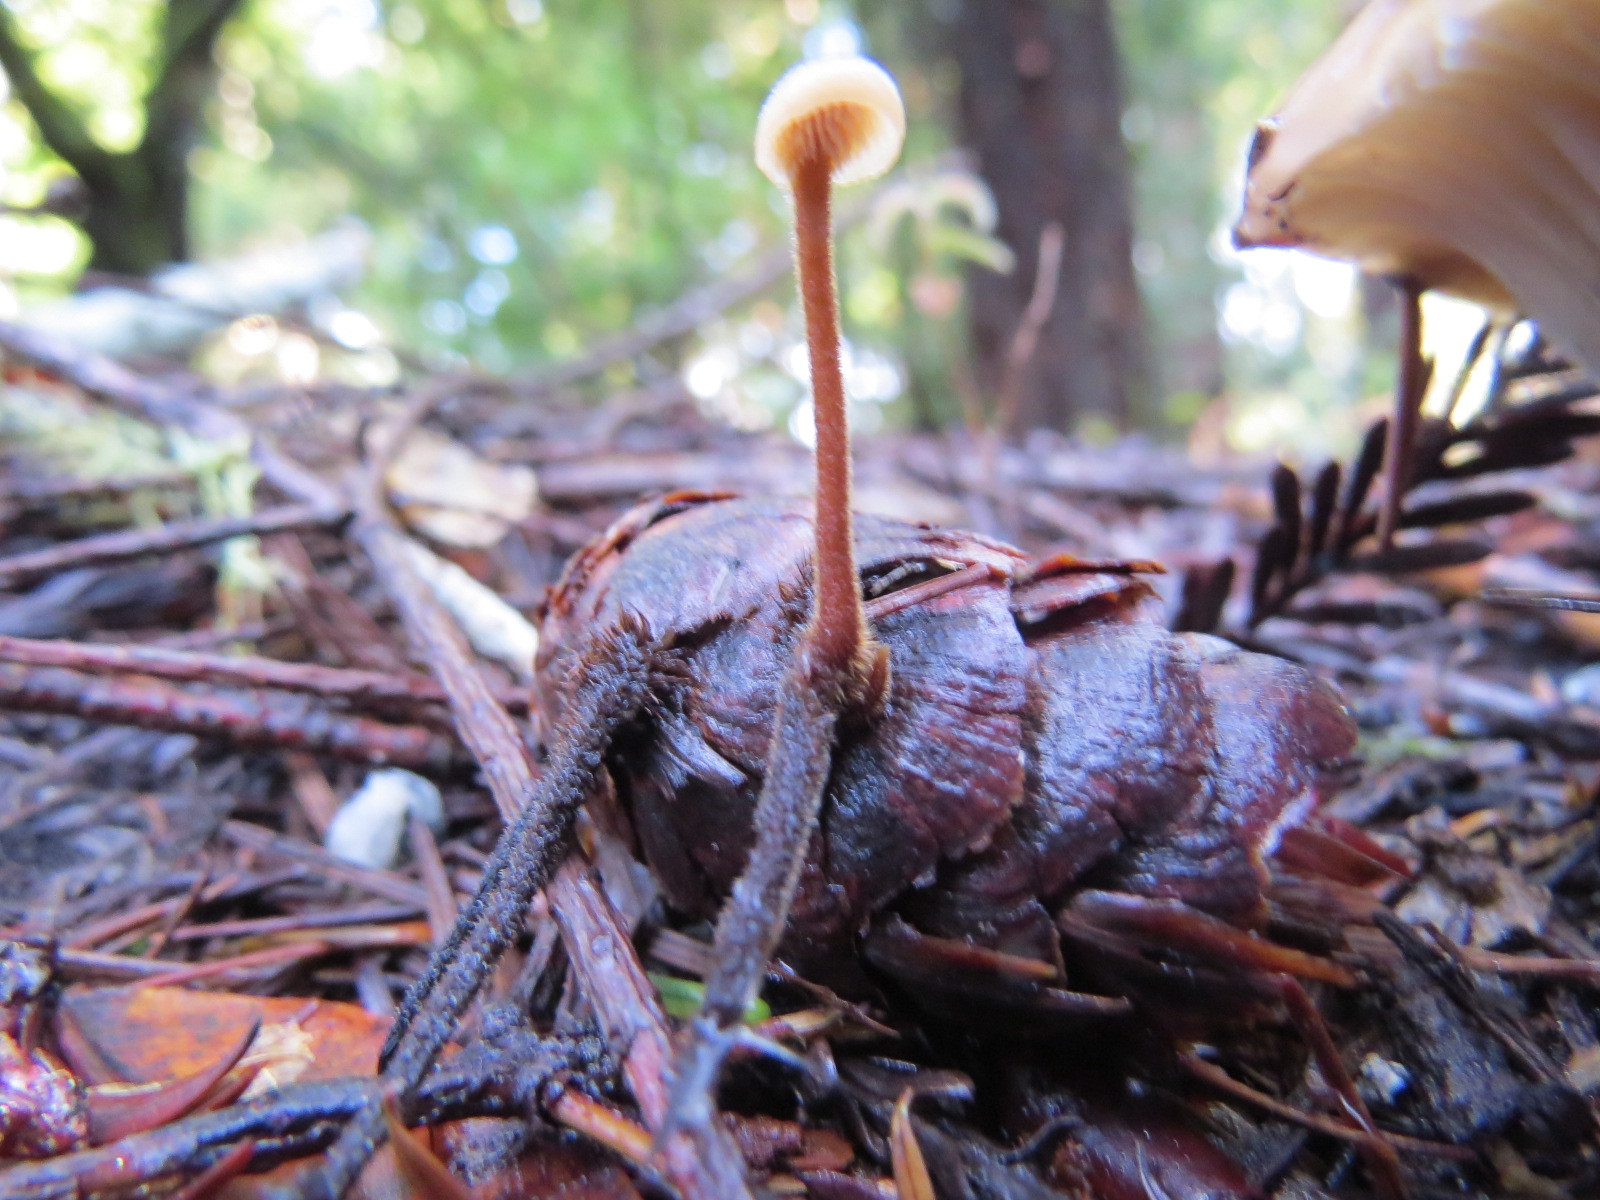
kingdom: Fungi
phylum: Basidiomycota
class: Agaricomycetes
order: Russulales
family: Auriscalpiaceae
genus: Auriscalpium
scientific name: Auriscalpium vulgare
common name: Earpick fungus
